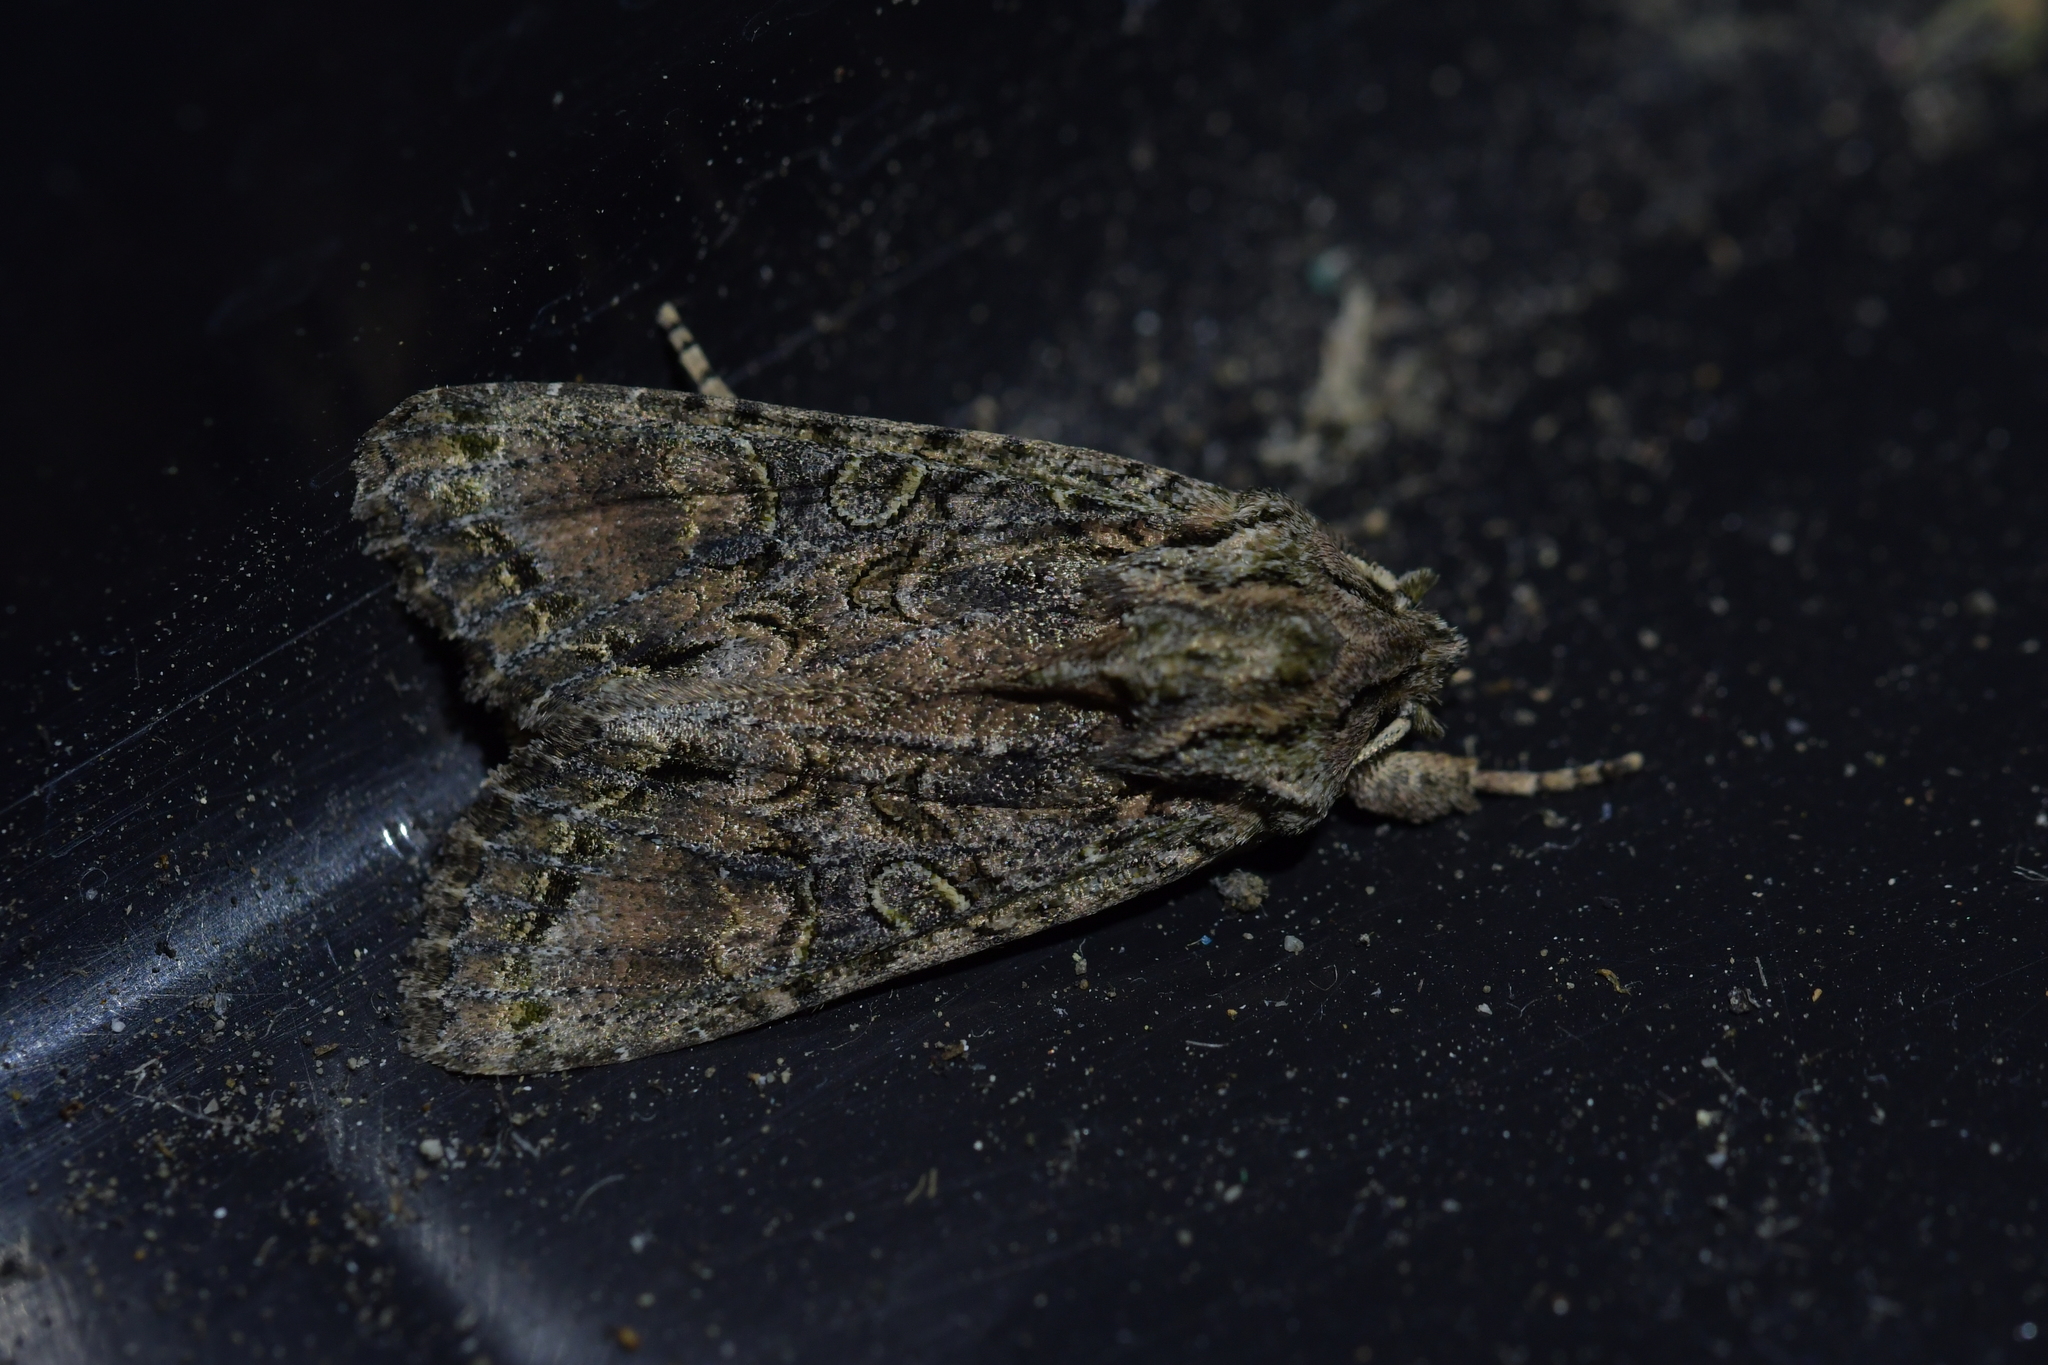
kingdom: Animalia
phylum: Arthropoda
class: Insecta
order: Lepidoptera
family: Noctuidae
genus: Ichneutica
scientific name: Ichneutica mutans
